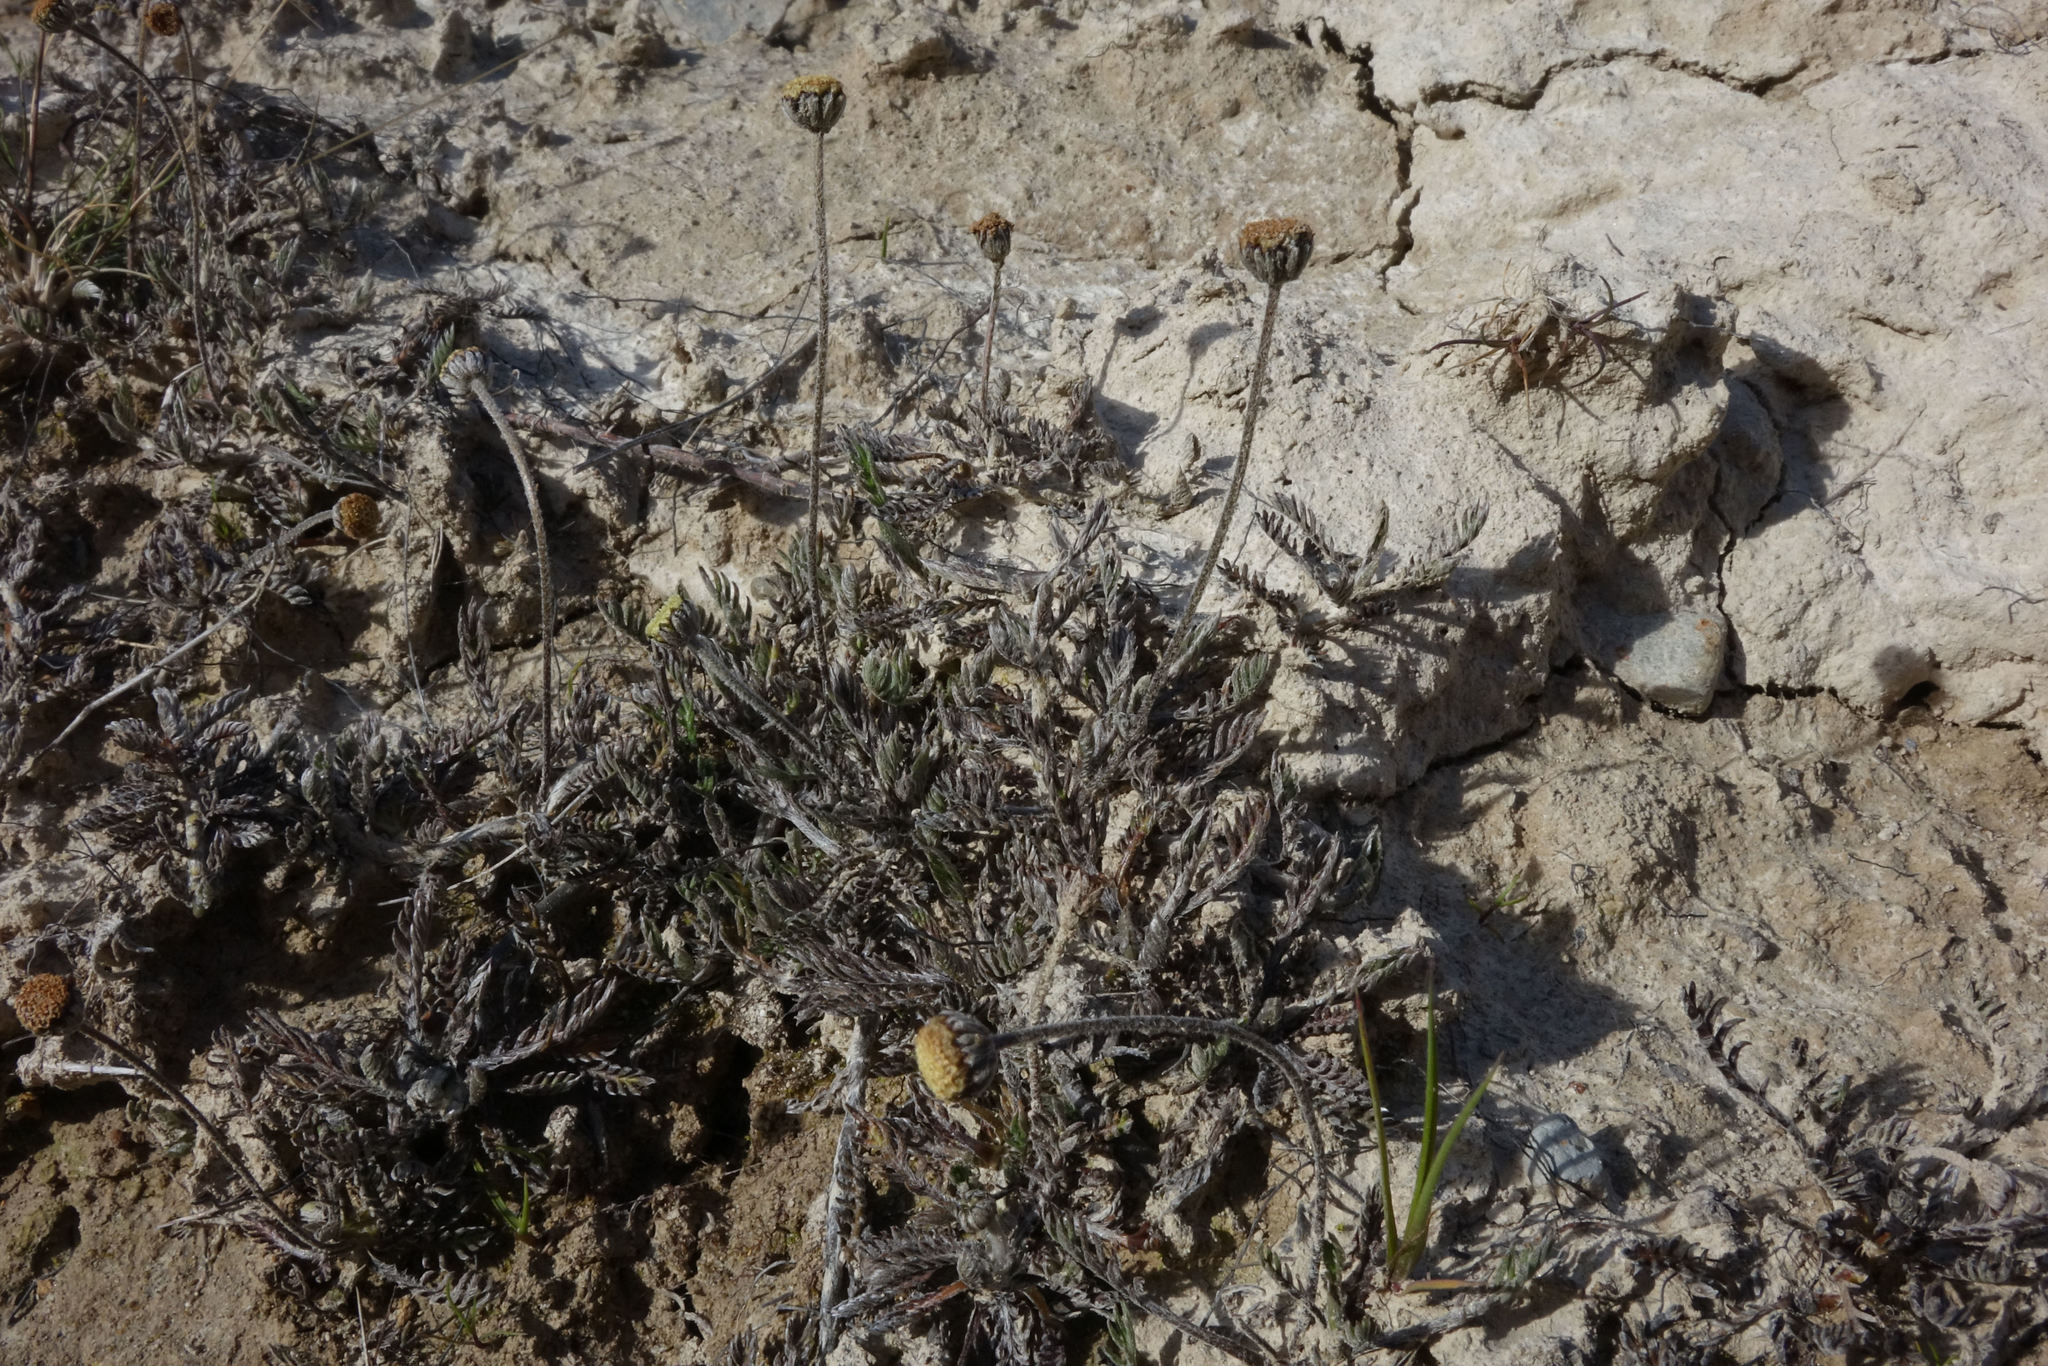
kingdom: Plantae
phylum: Tracheophyta
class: Magnoliopsida
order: Asterales
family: Asteraceae
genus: Leptinella
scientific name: Leptinella pectinata
